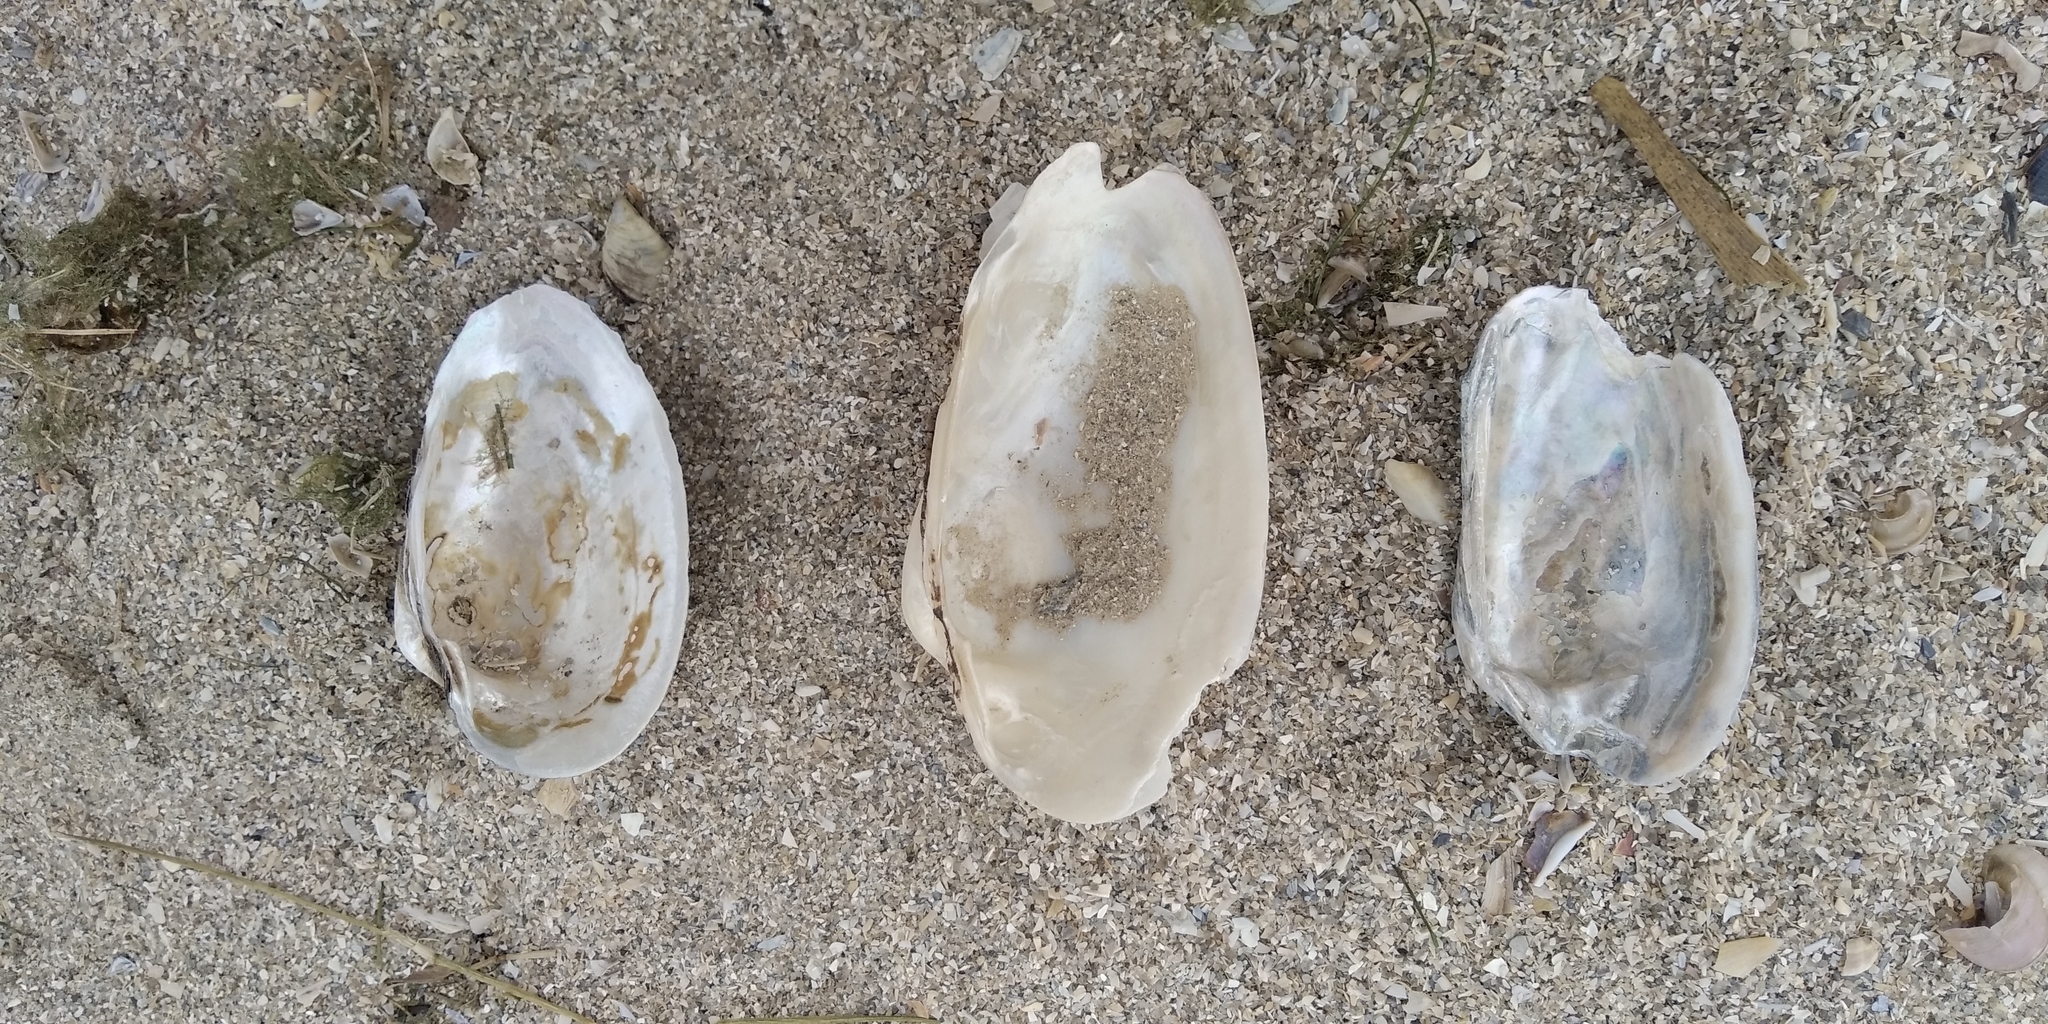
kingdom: Animalia
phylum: Mollusca
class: Bivalvia
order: Unionida
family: Unionidae
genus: Unio
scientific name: Unio tumidus
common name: Swollen river mussel
